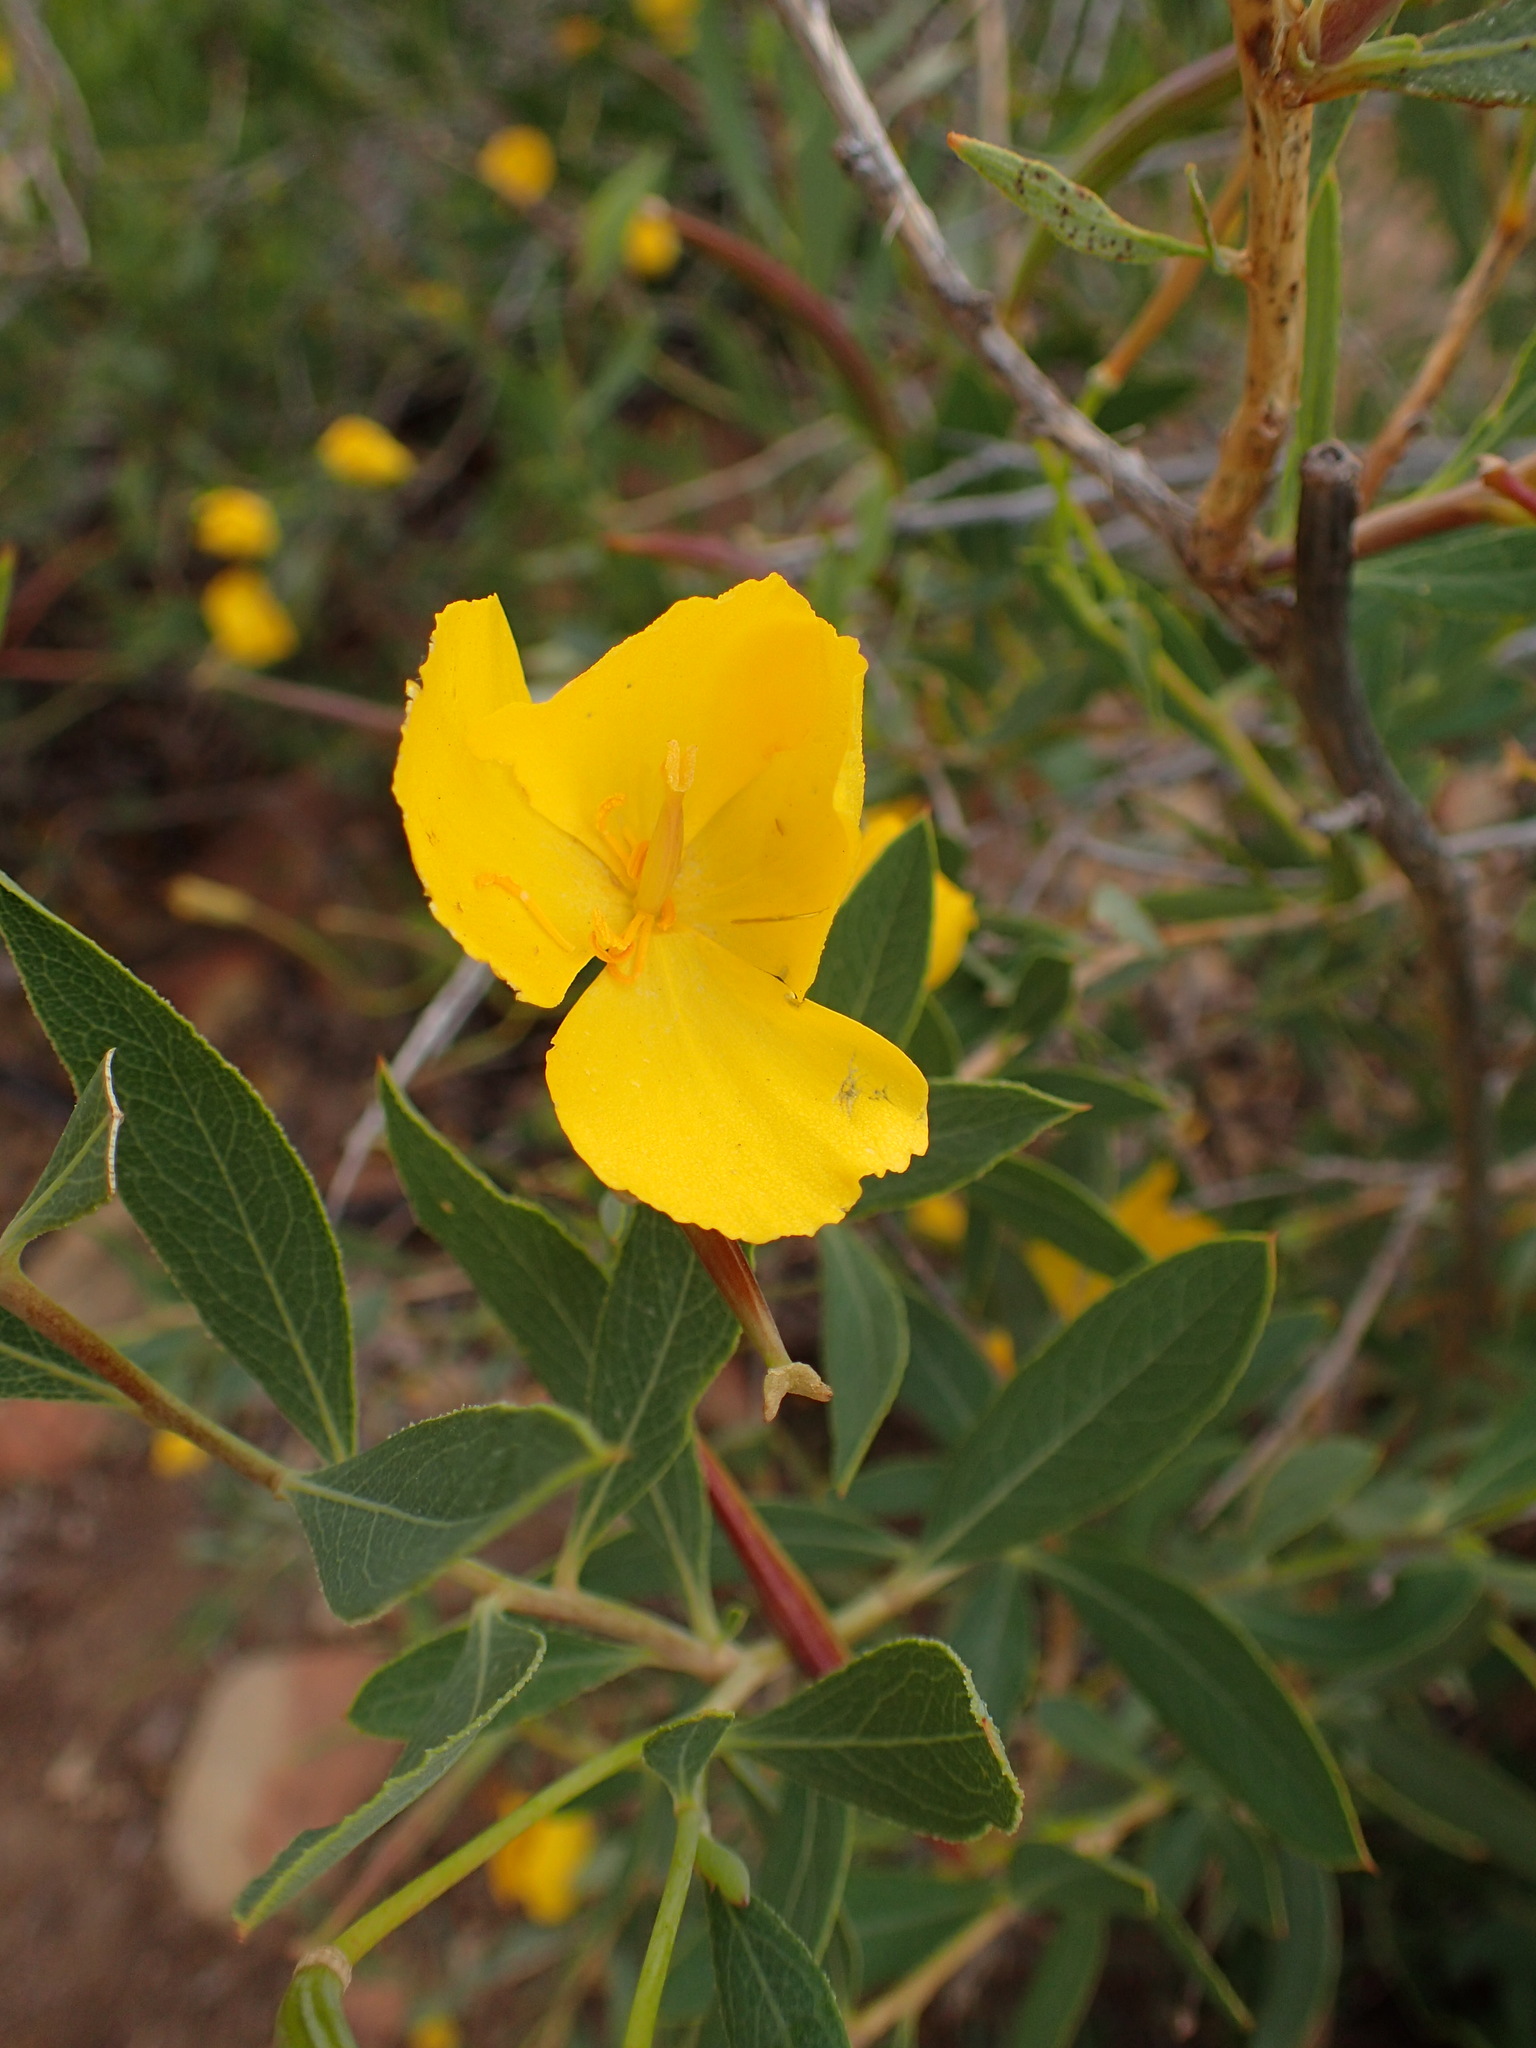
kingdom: Plantae
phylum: Tracheophyta
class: Magnoliopsida
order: Ranunculales
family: Papaveraceae
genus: Dendromecon
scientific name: Dendromecon rigida
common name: Tree poppy
